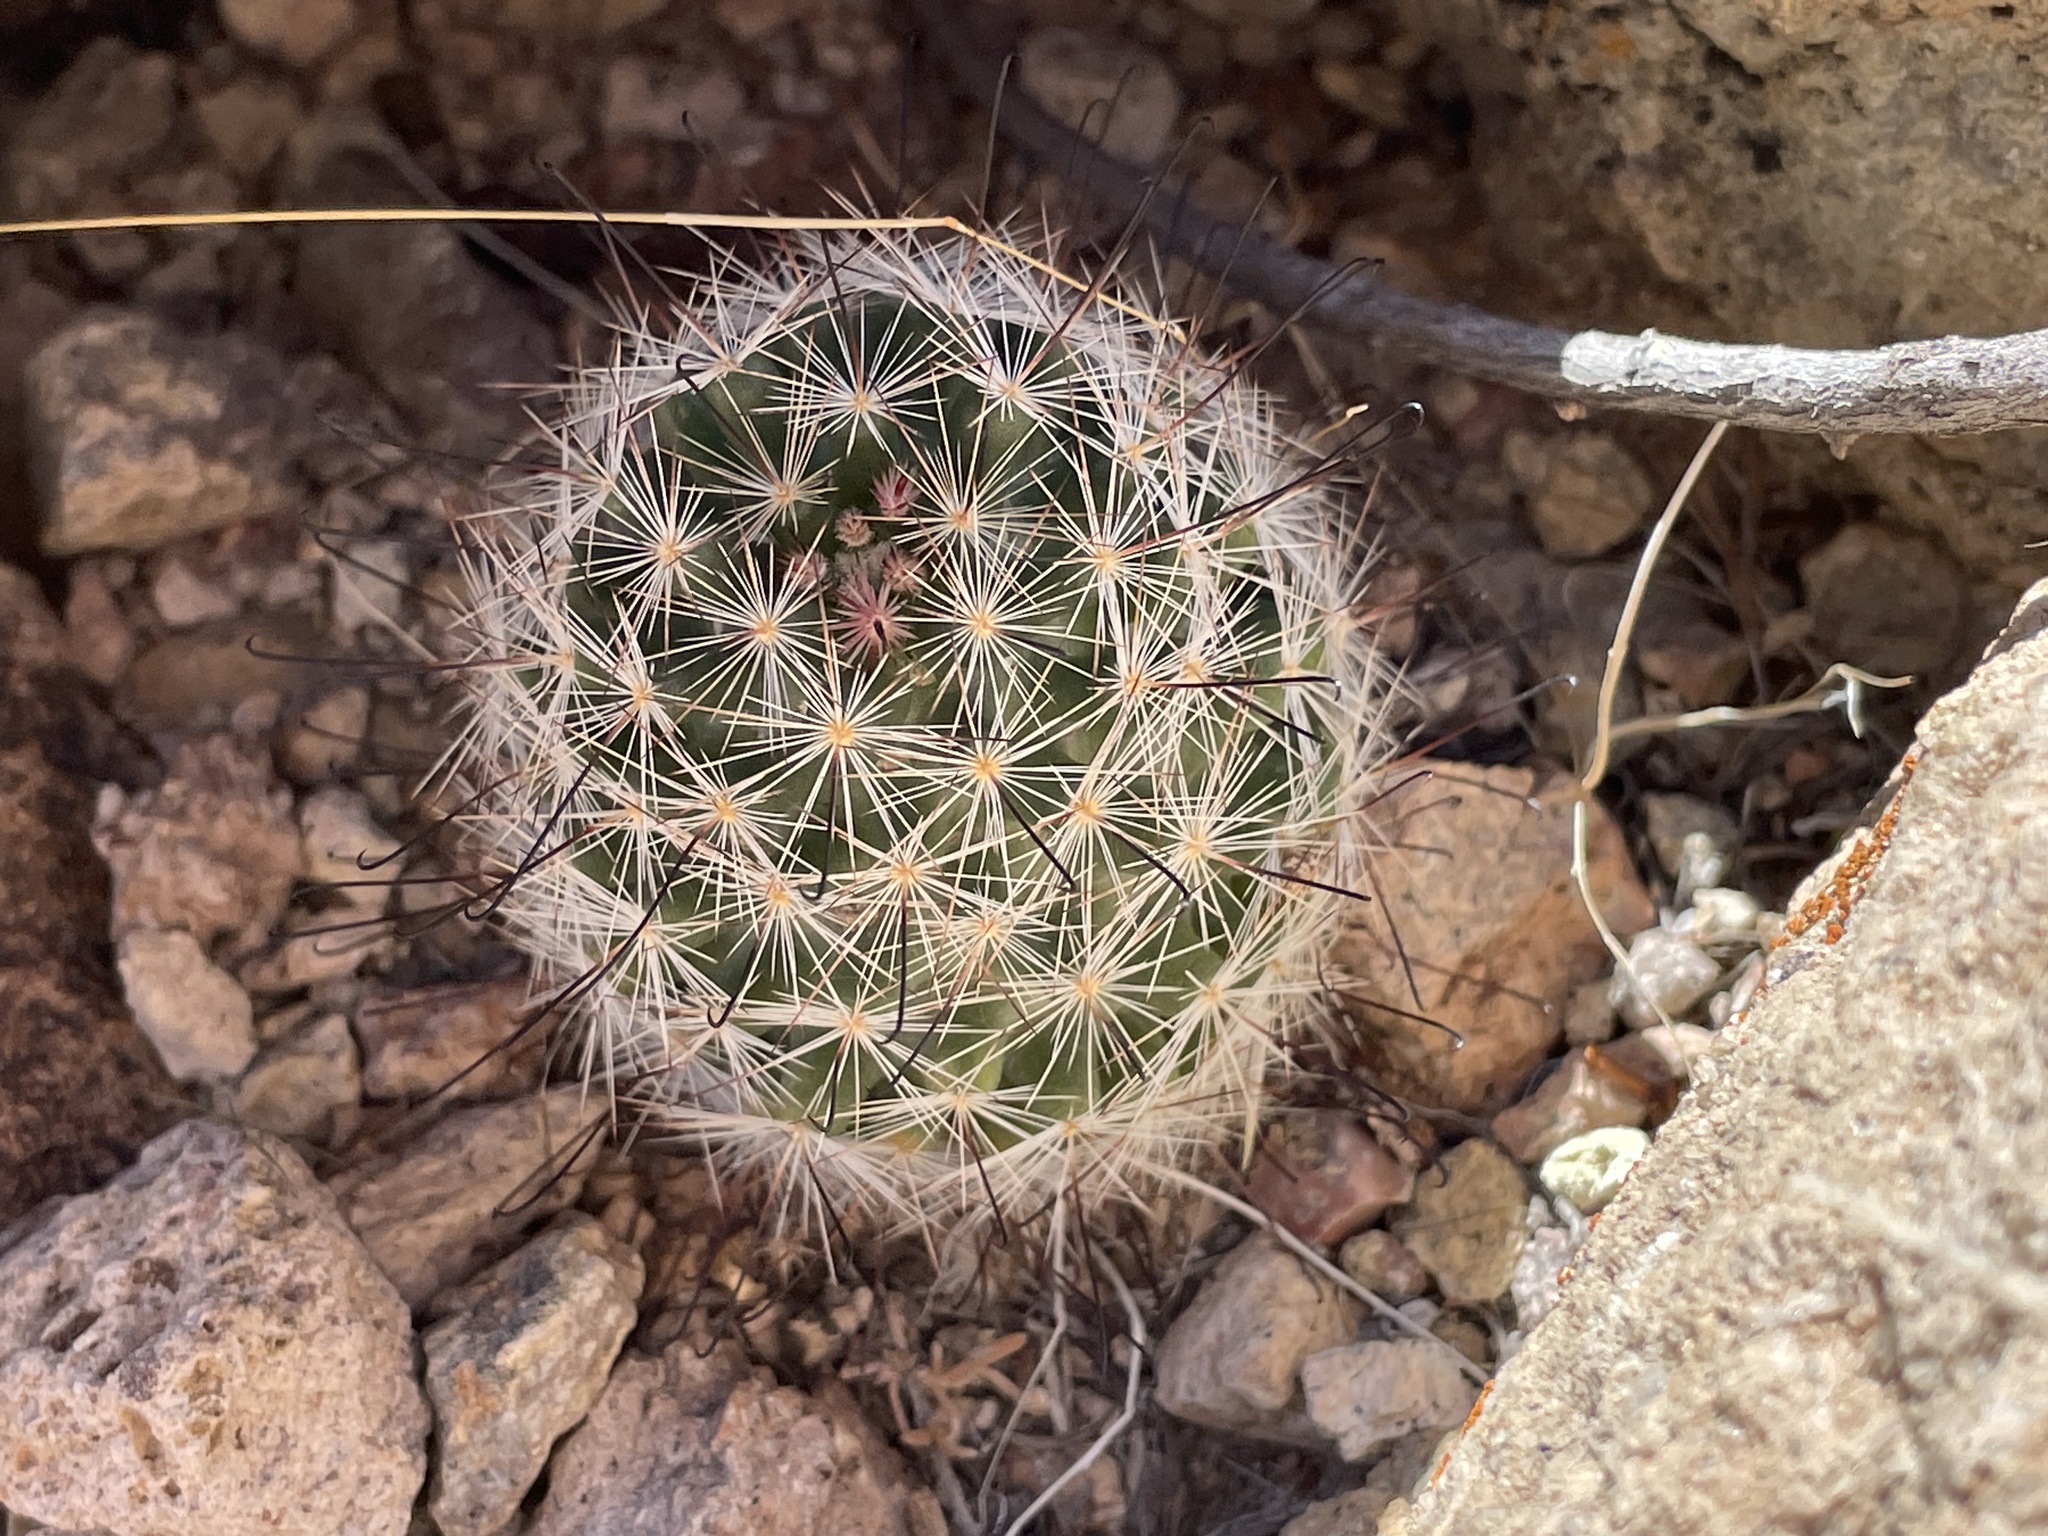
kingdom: Plantae
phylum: Tracheophyta
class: Magnoliopsida
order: Caryophyllales
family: Cactaceae
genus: Cochemiea
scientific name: Cochemiea tetrancistra
